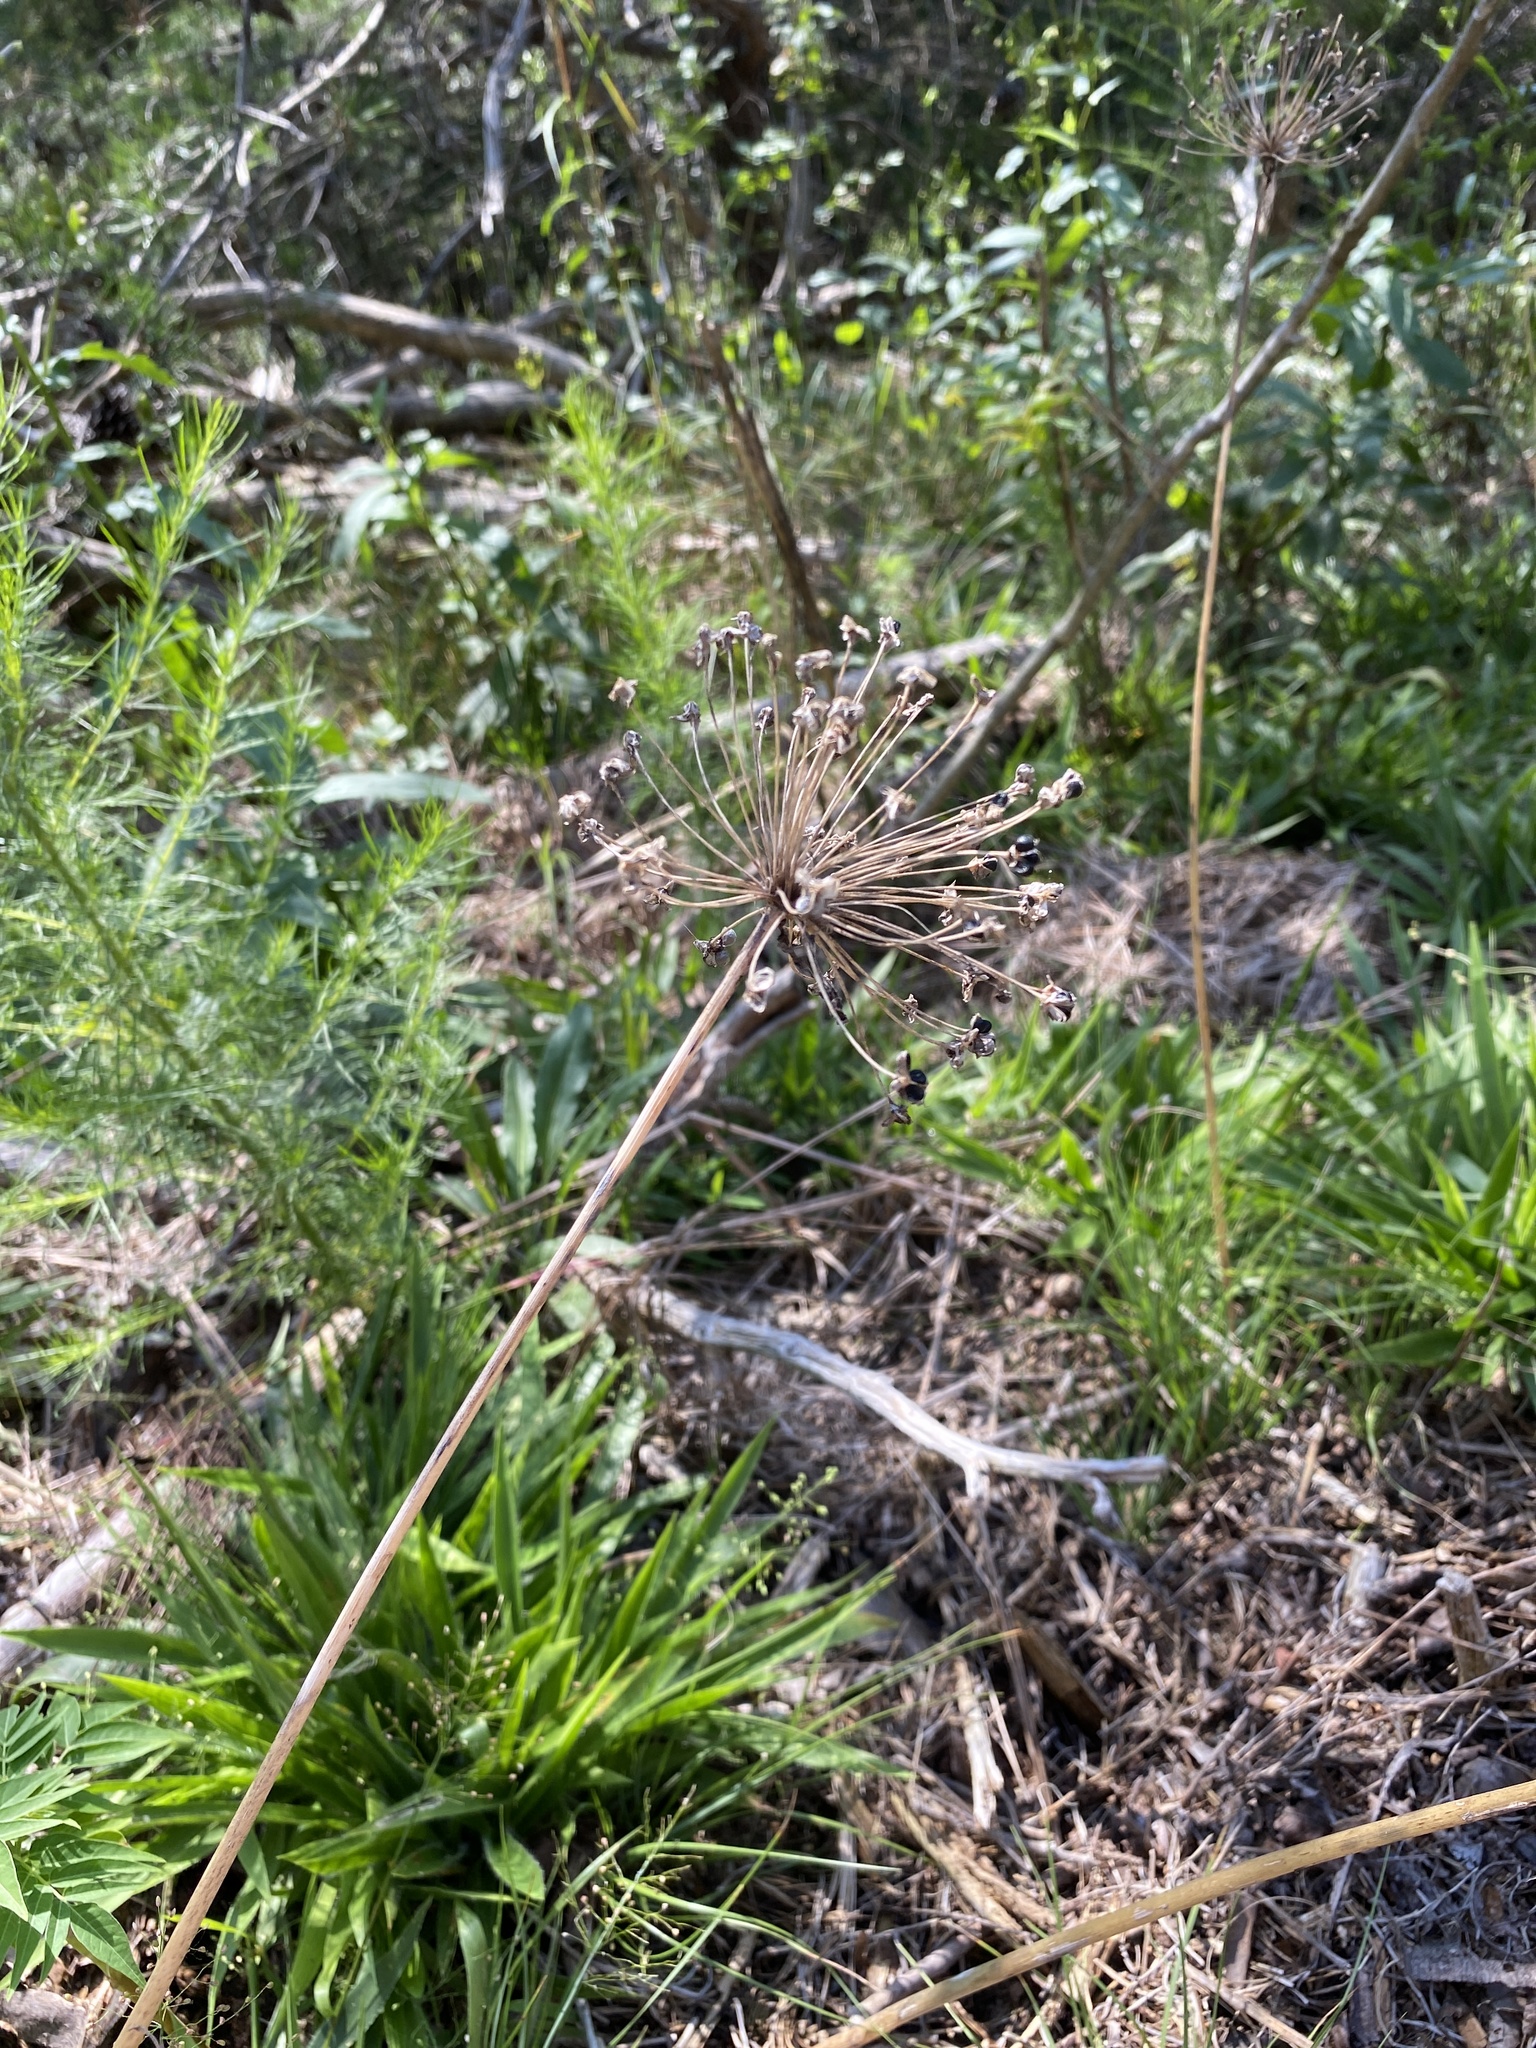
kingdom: Plantae
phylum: Tracheophyta
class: Liliopsida
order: Asparagales
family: Amaryllidaceae
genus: Allium
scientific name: Allium keeverae
